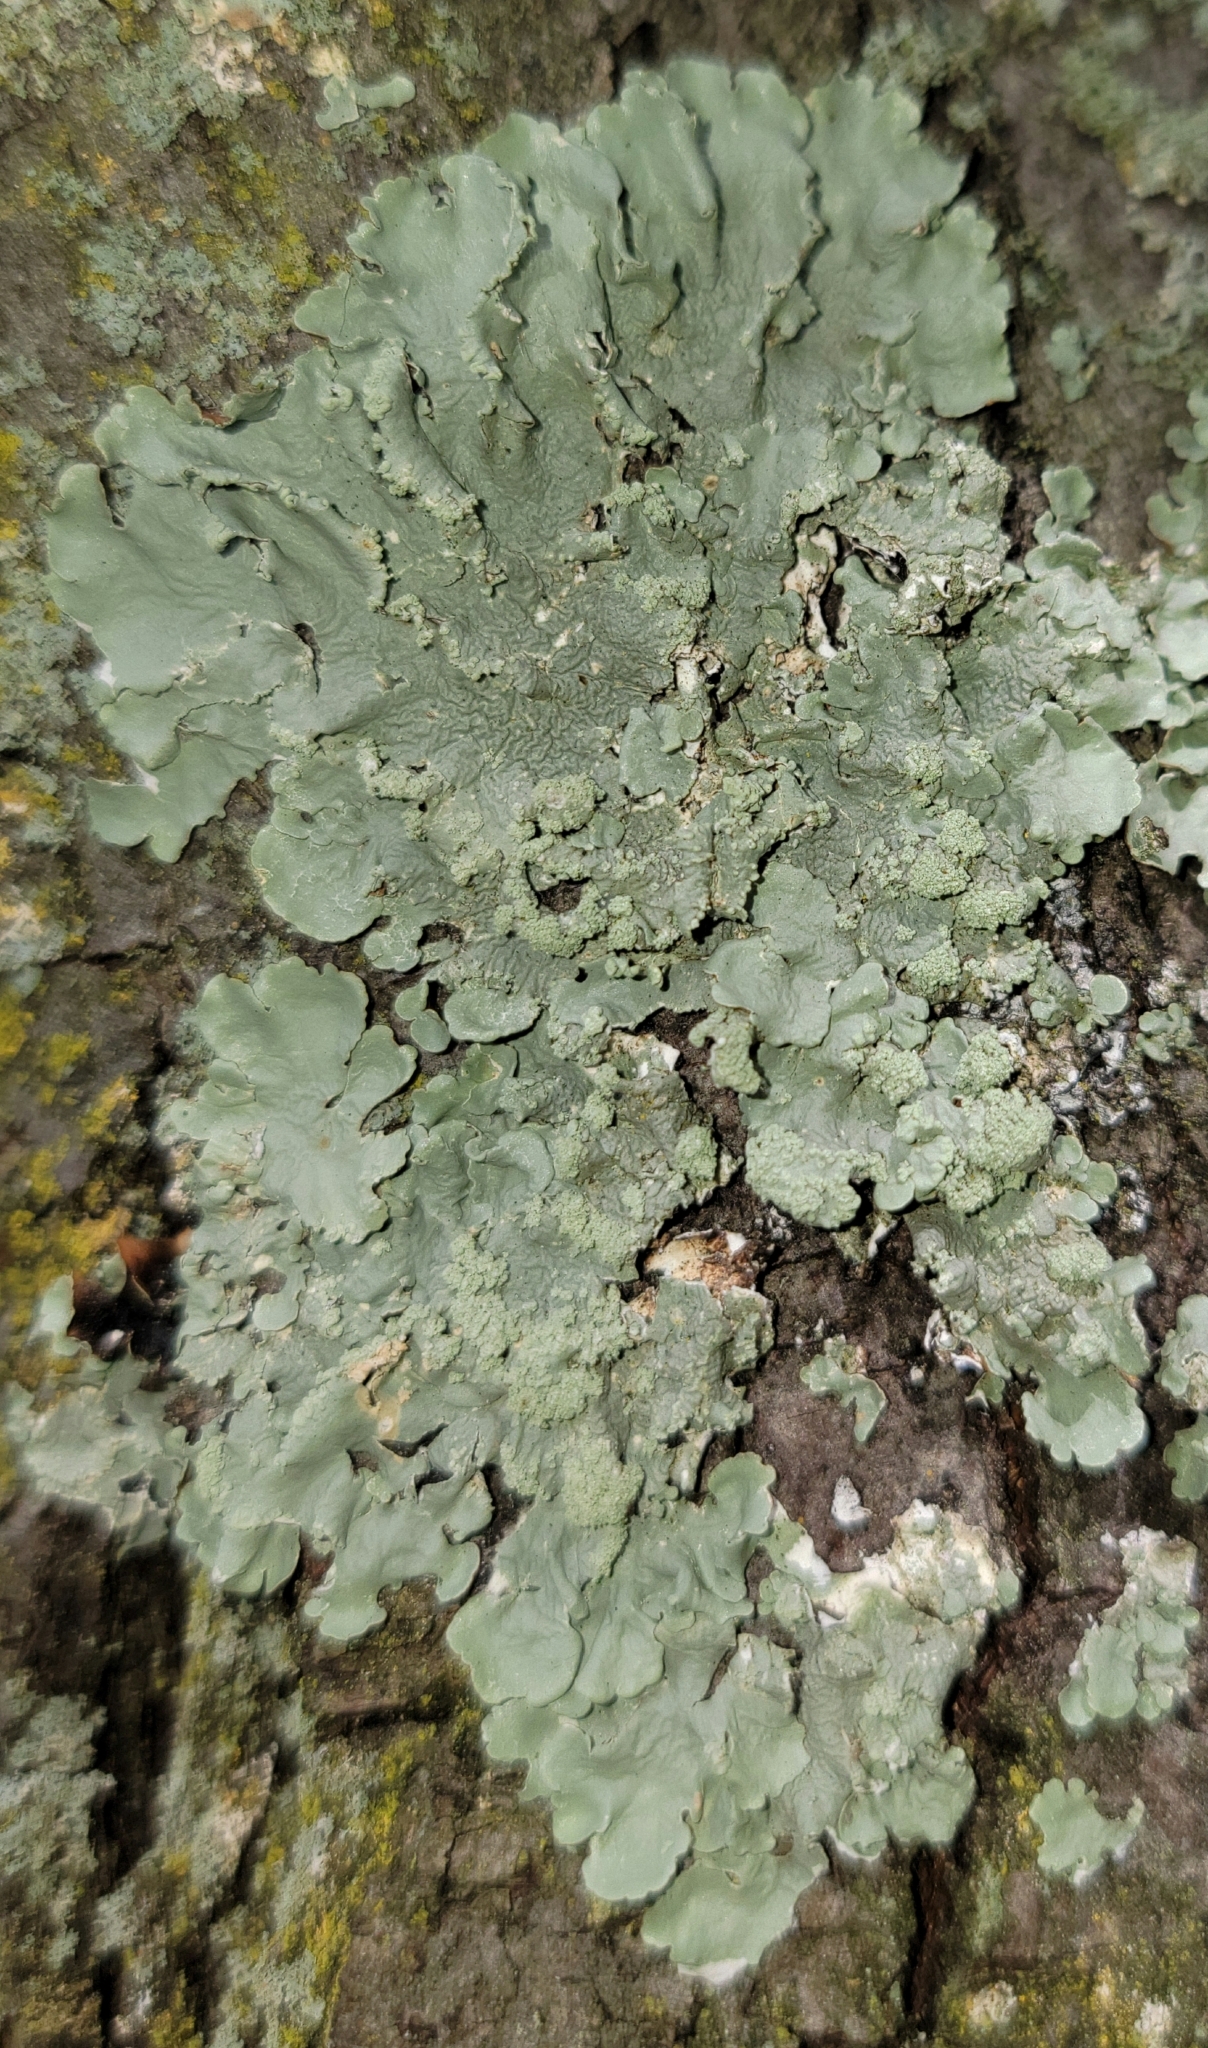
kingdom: Fungi
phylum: Ascomycota
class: Lecanoromycetes
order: Lecanorales
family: Parmeliaceae
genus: Flavoparmelia
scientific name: Flavoparmelia caperata
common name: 40-mile per hour lichen
